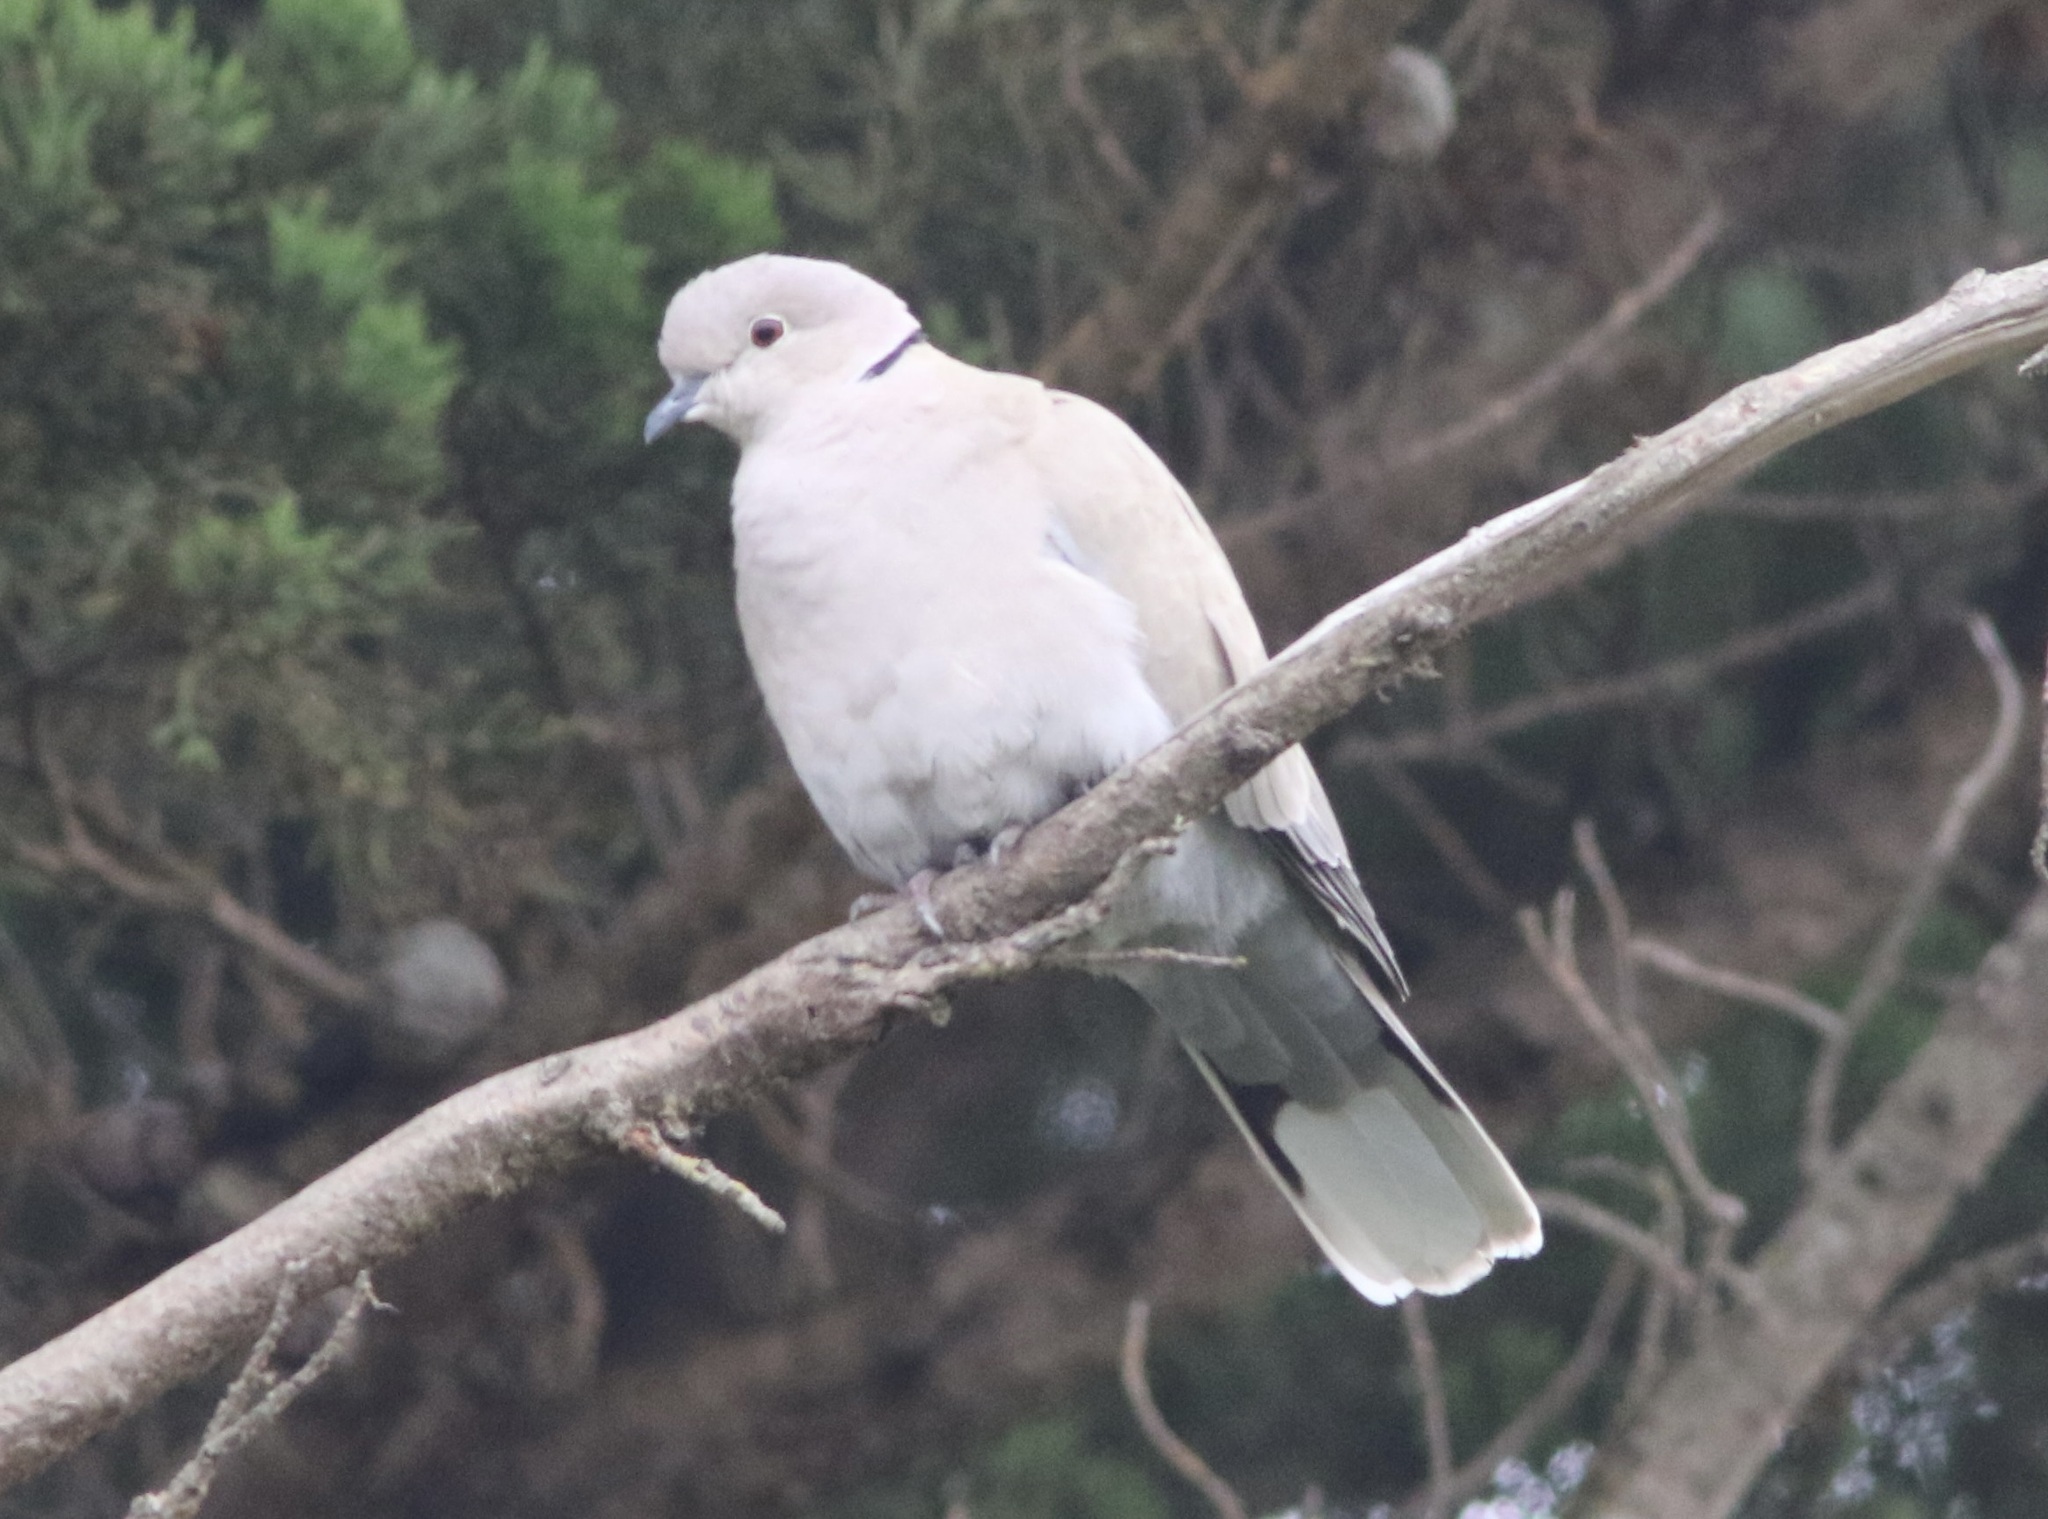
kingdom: Animalia
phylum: Chordata
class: Aves
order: Columbiformes
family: Columbidae
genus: Streptopelia
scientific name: Streptopelia decaocto
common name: Eurasian collared dove
